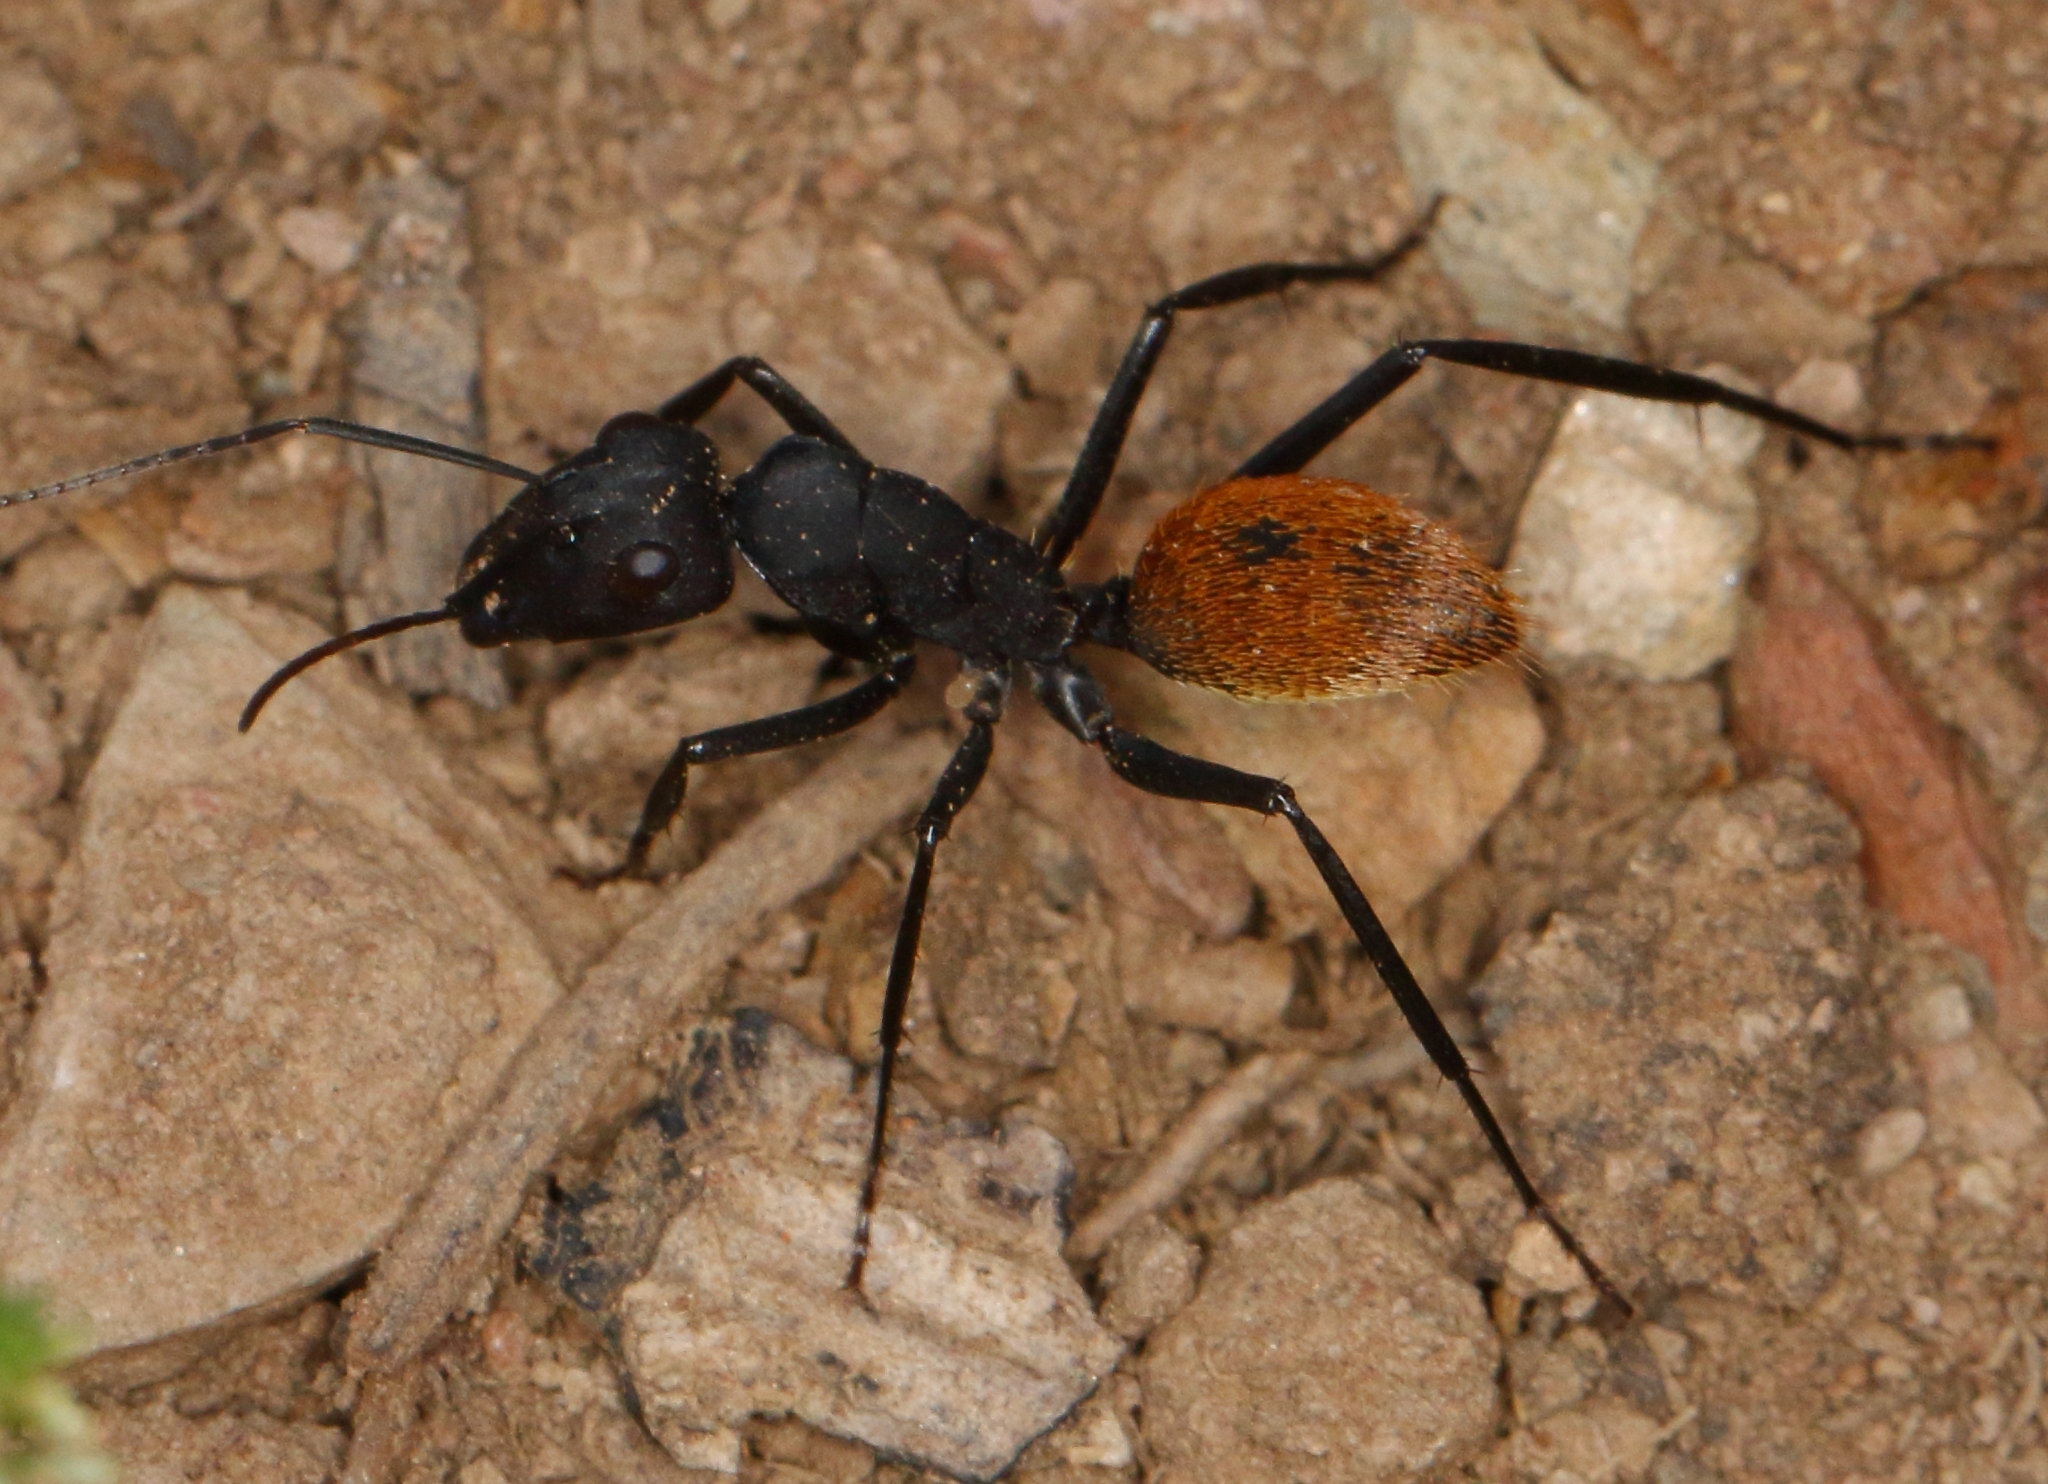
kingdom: Animalia
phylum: Arthropoda
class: Insecta
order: Hymenoptera
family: Formicidae
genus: Camponotus
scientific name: Camponotus fulvopilosus
